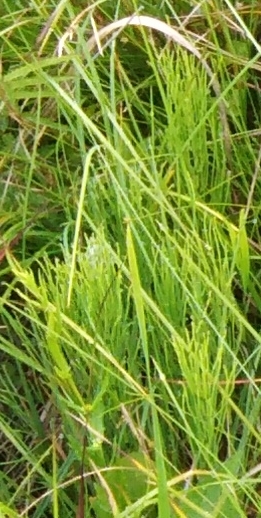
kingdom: Plantae
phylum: Tracheophyta
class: Polypodiopsida
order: Equisetales
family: Equisetaceae
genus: Equisetum
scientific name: Equisetum arvense
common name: Field horsetail
